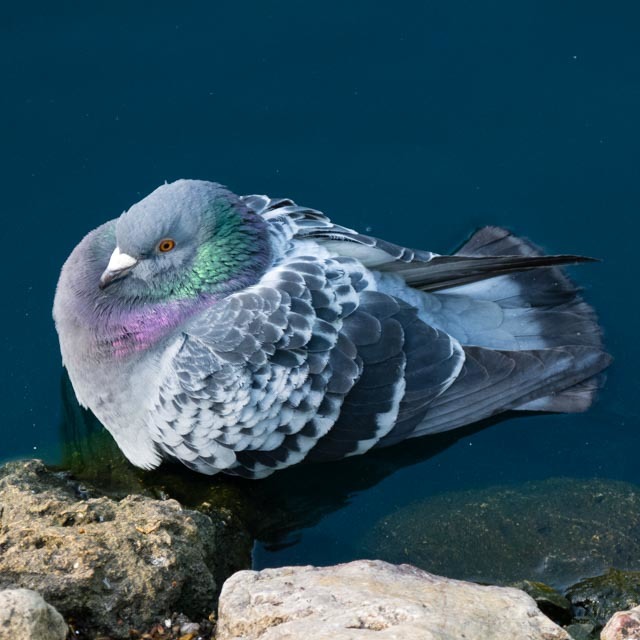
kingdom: Animalia
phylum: Chordata
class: Aves
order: Columbiformes
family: Columbidae
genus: Columba
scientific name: Columba livia
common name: Rock pigeon
